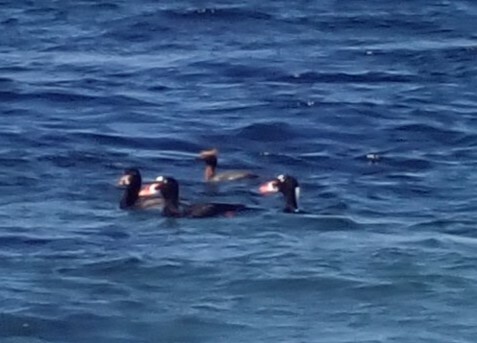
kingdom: Animalia
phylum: Chordata
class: Aves
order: Anseriformes
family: Anatidae
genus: Melanitta
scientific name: Melanitta perspicillata
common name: Surf scoter
